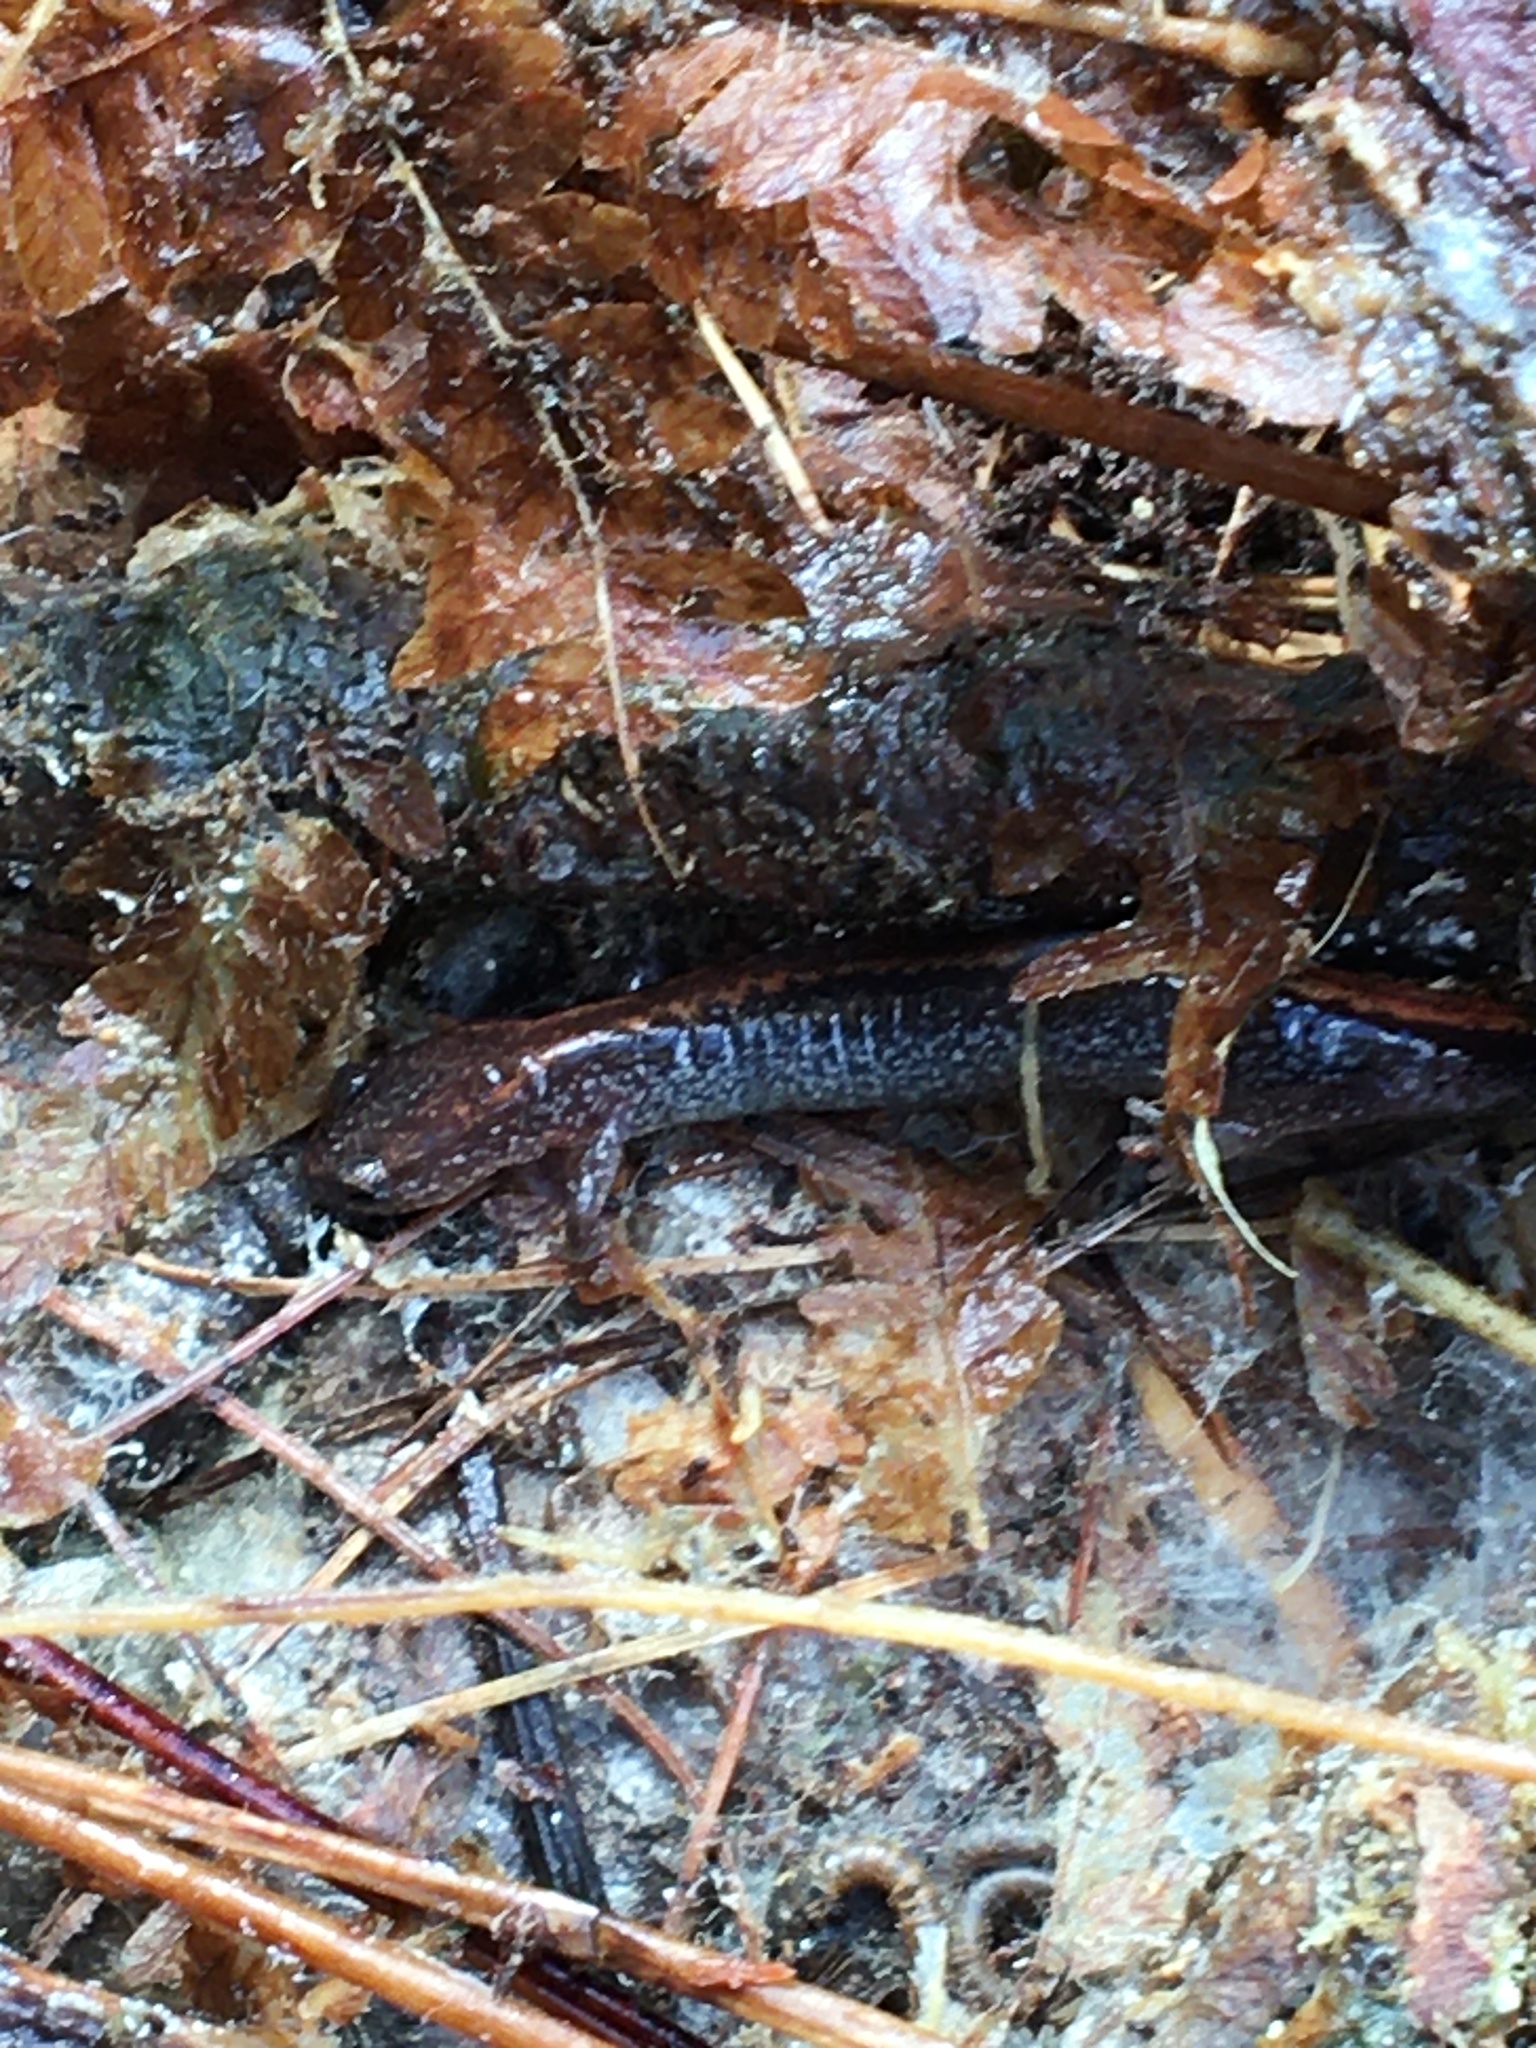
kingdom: Animalia
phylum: Chordata
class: Amphibia
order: Caudata
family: Plethodontidae
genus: Plethodon
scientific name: Plethodon cinereus
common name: Redback salamander
